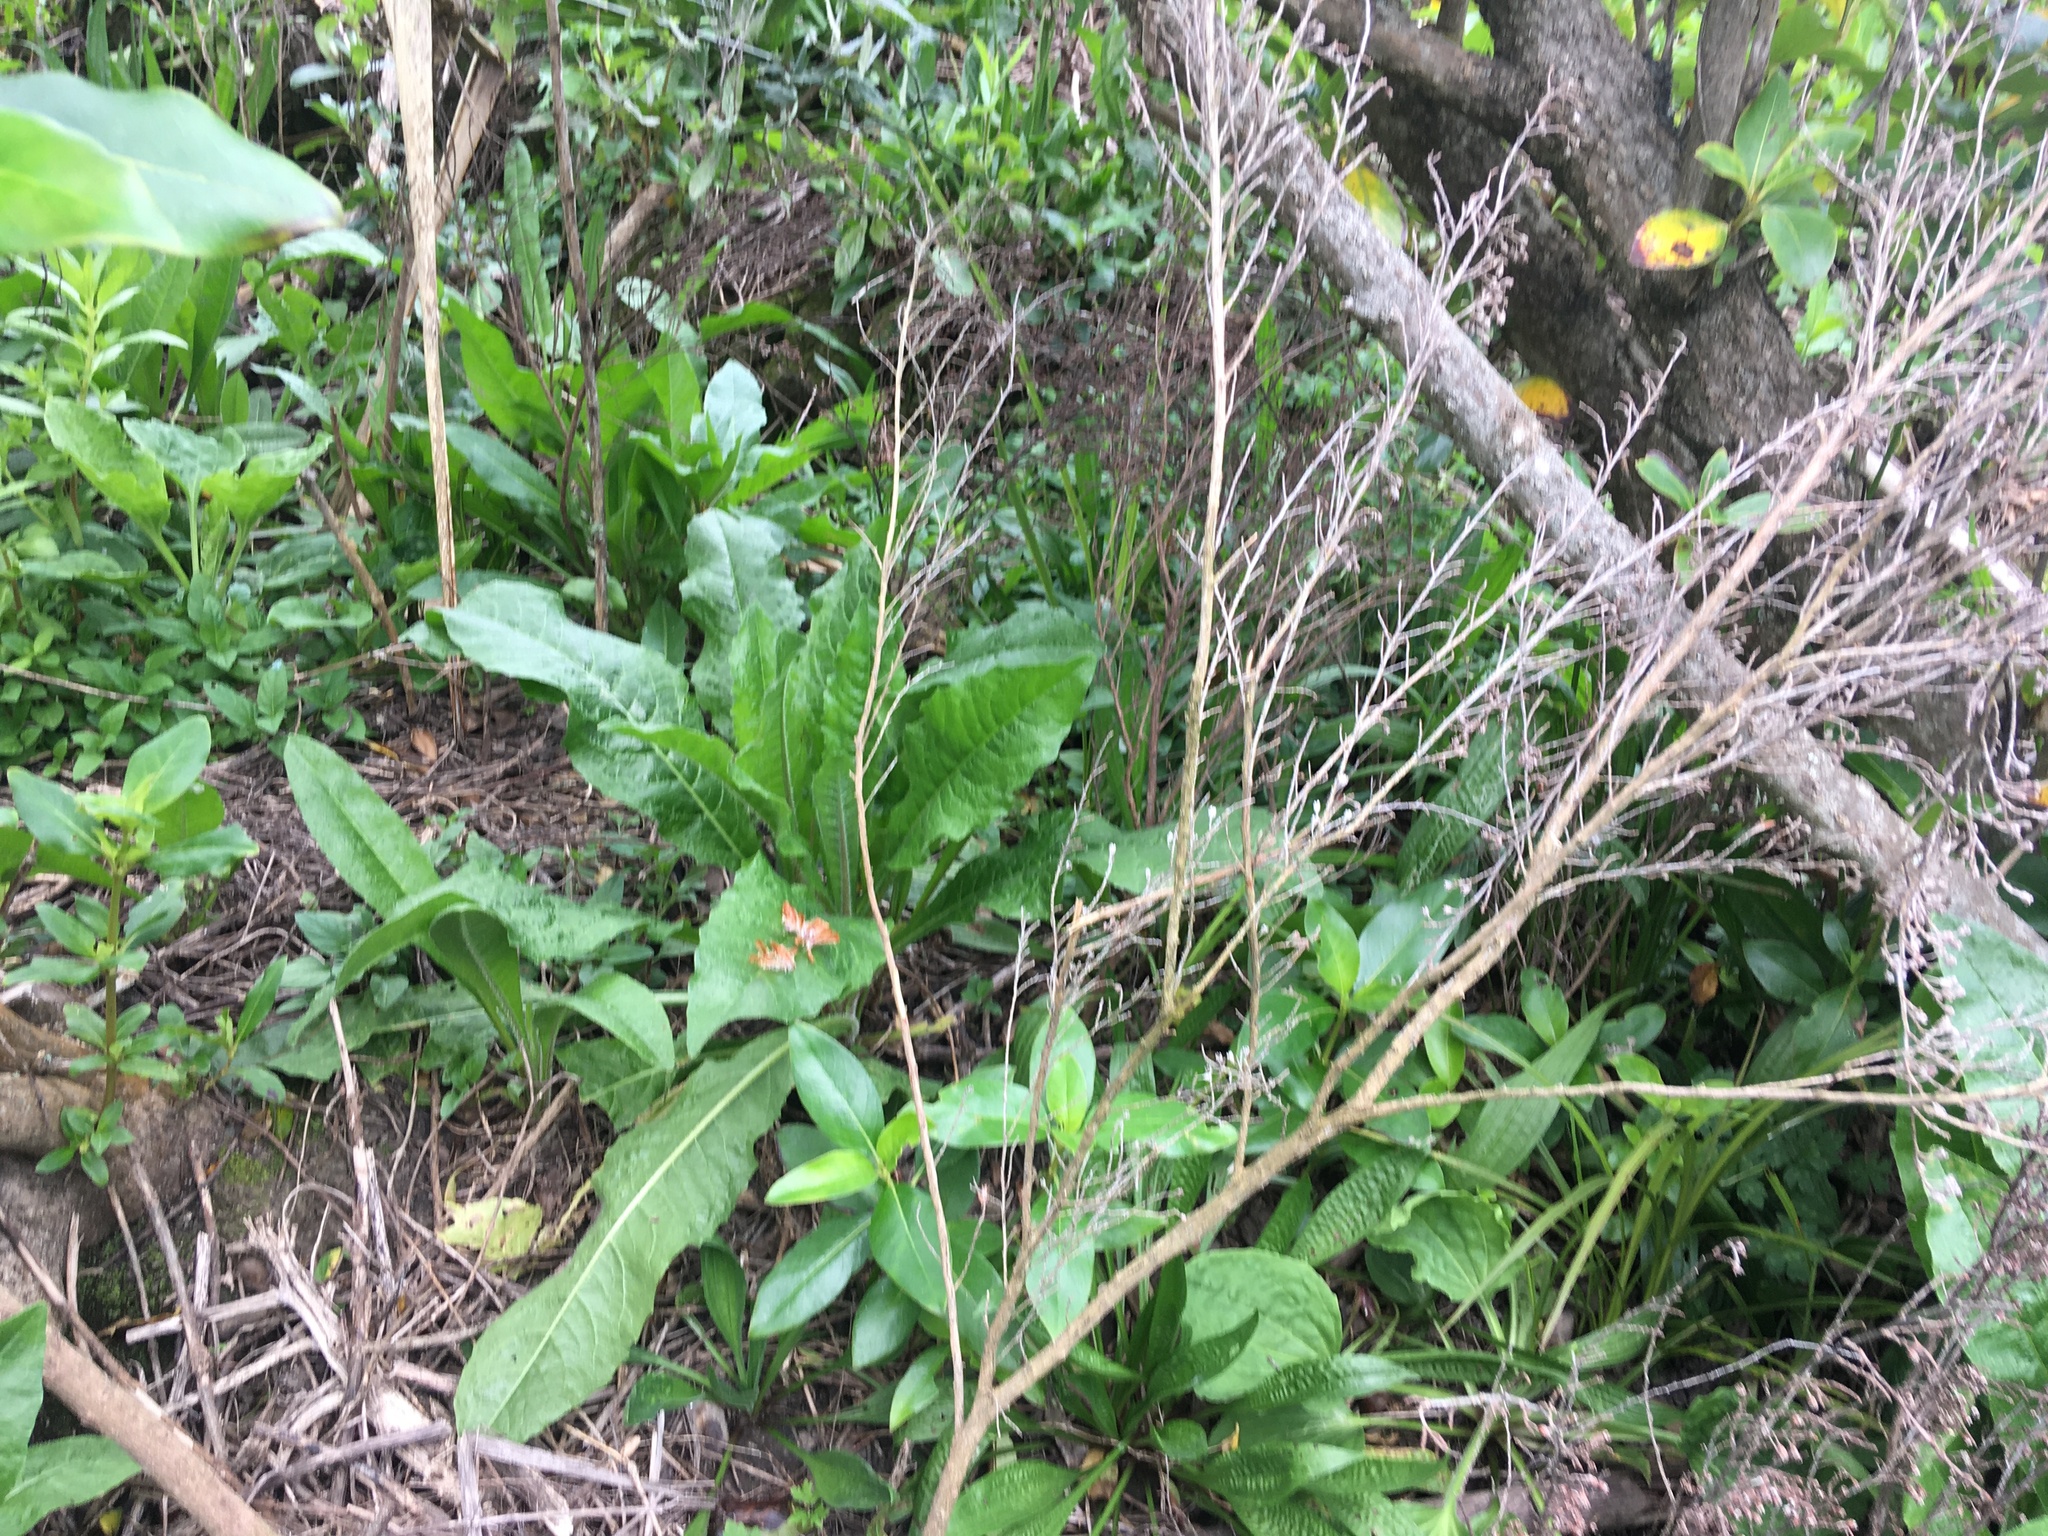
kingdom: Plantae
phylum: Tracheophyta
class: Magnoliopsida
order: Gentianales
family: Rubiaceae
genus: Coprosma
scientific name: Coprosma robusta
